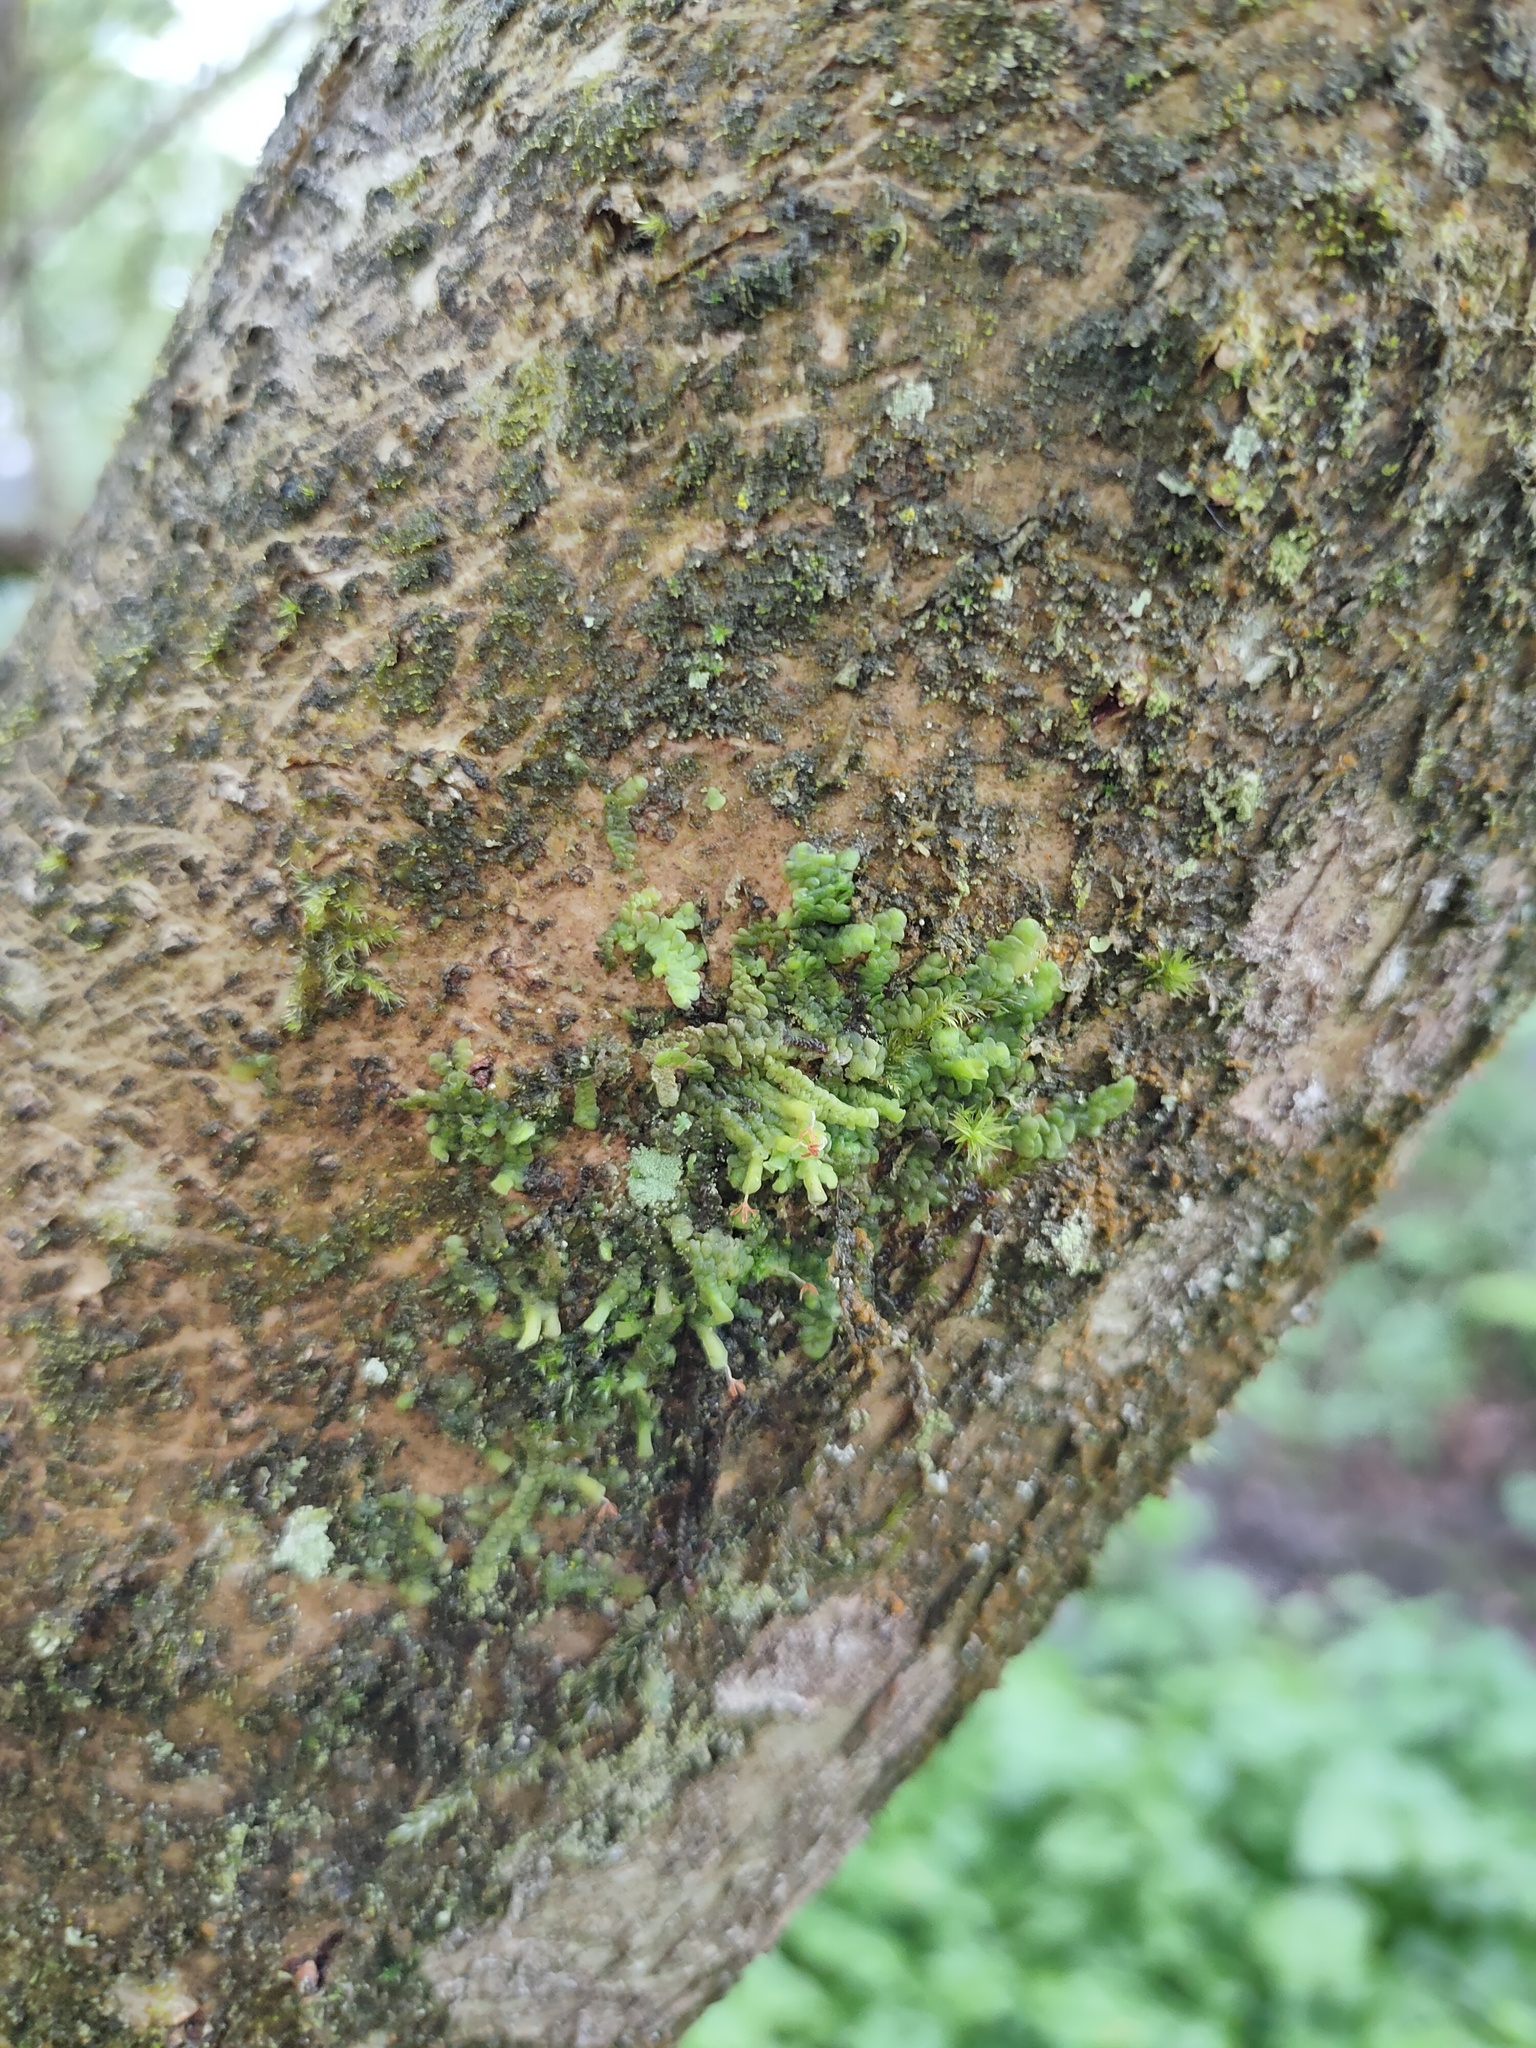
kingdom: Plantae
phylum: Marchantiophyta
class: Jungermanniopsida
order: Porellales
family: Radulaceae
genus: Radula
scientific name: Radula complanata
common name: Flat-leaved scalewort
